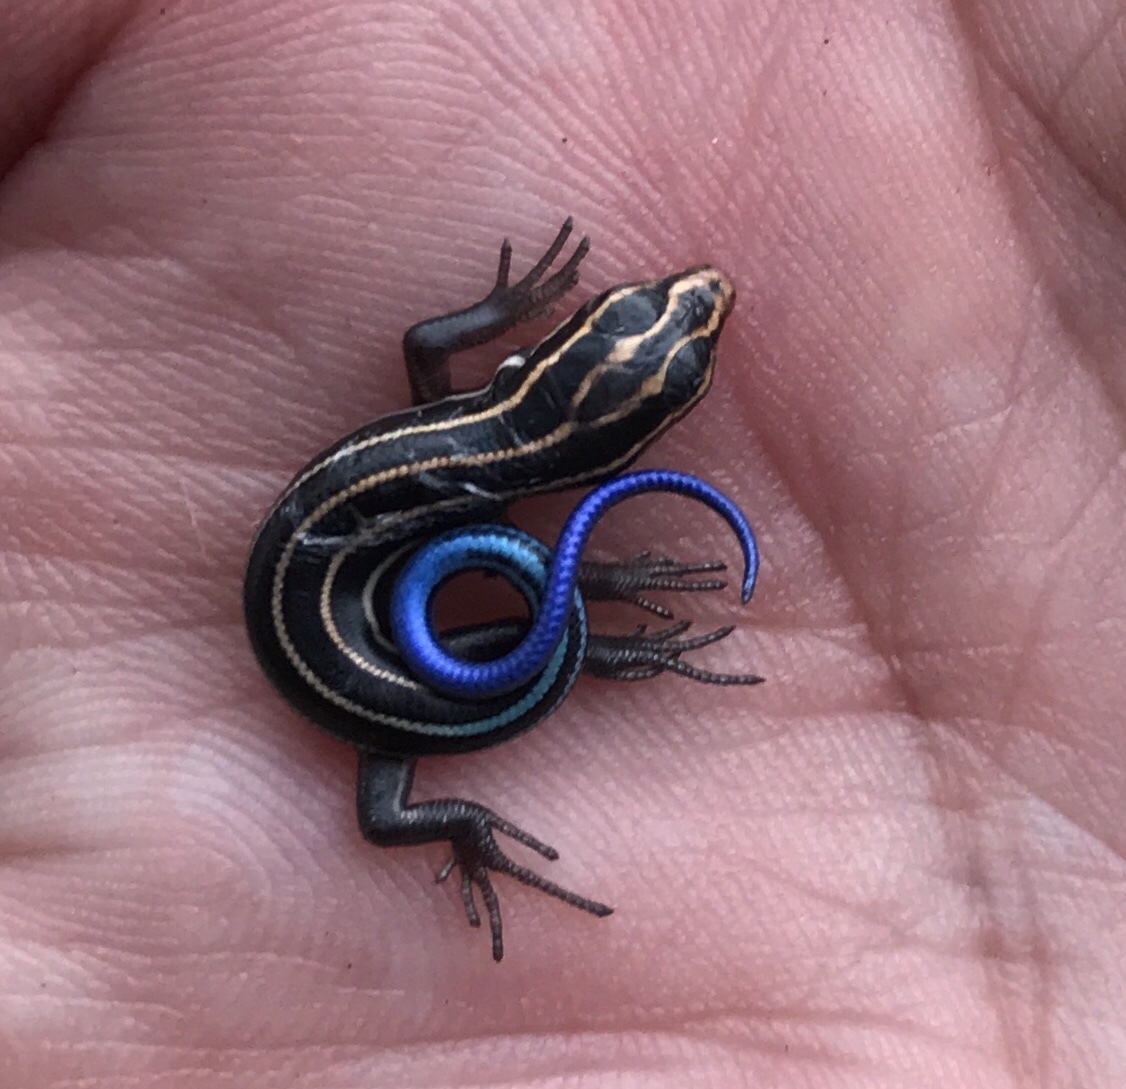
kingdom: Animalia
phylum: Chordata
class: Squamata
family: Scincidae
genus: Plestiodon
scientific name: Plestiodon fasciatus
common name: Five-lined skink
